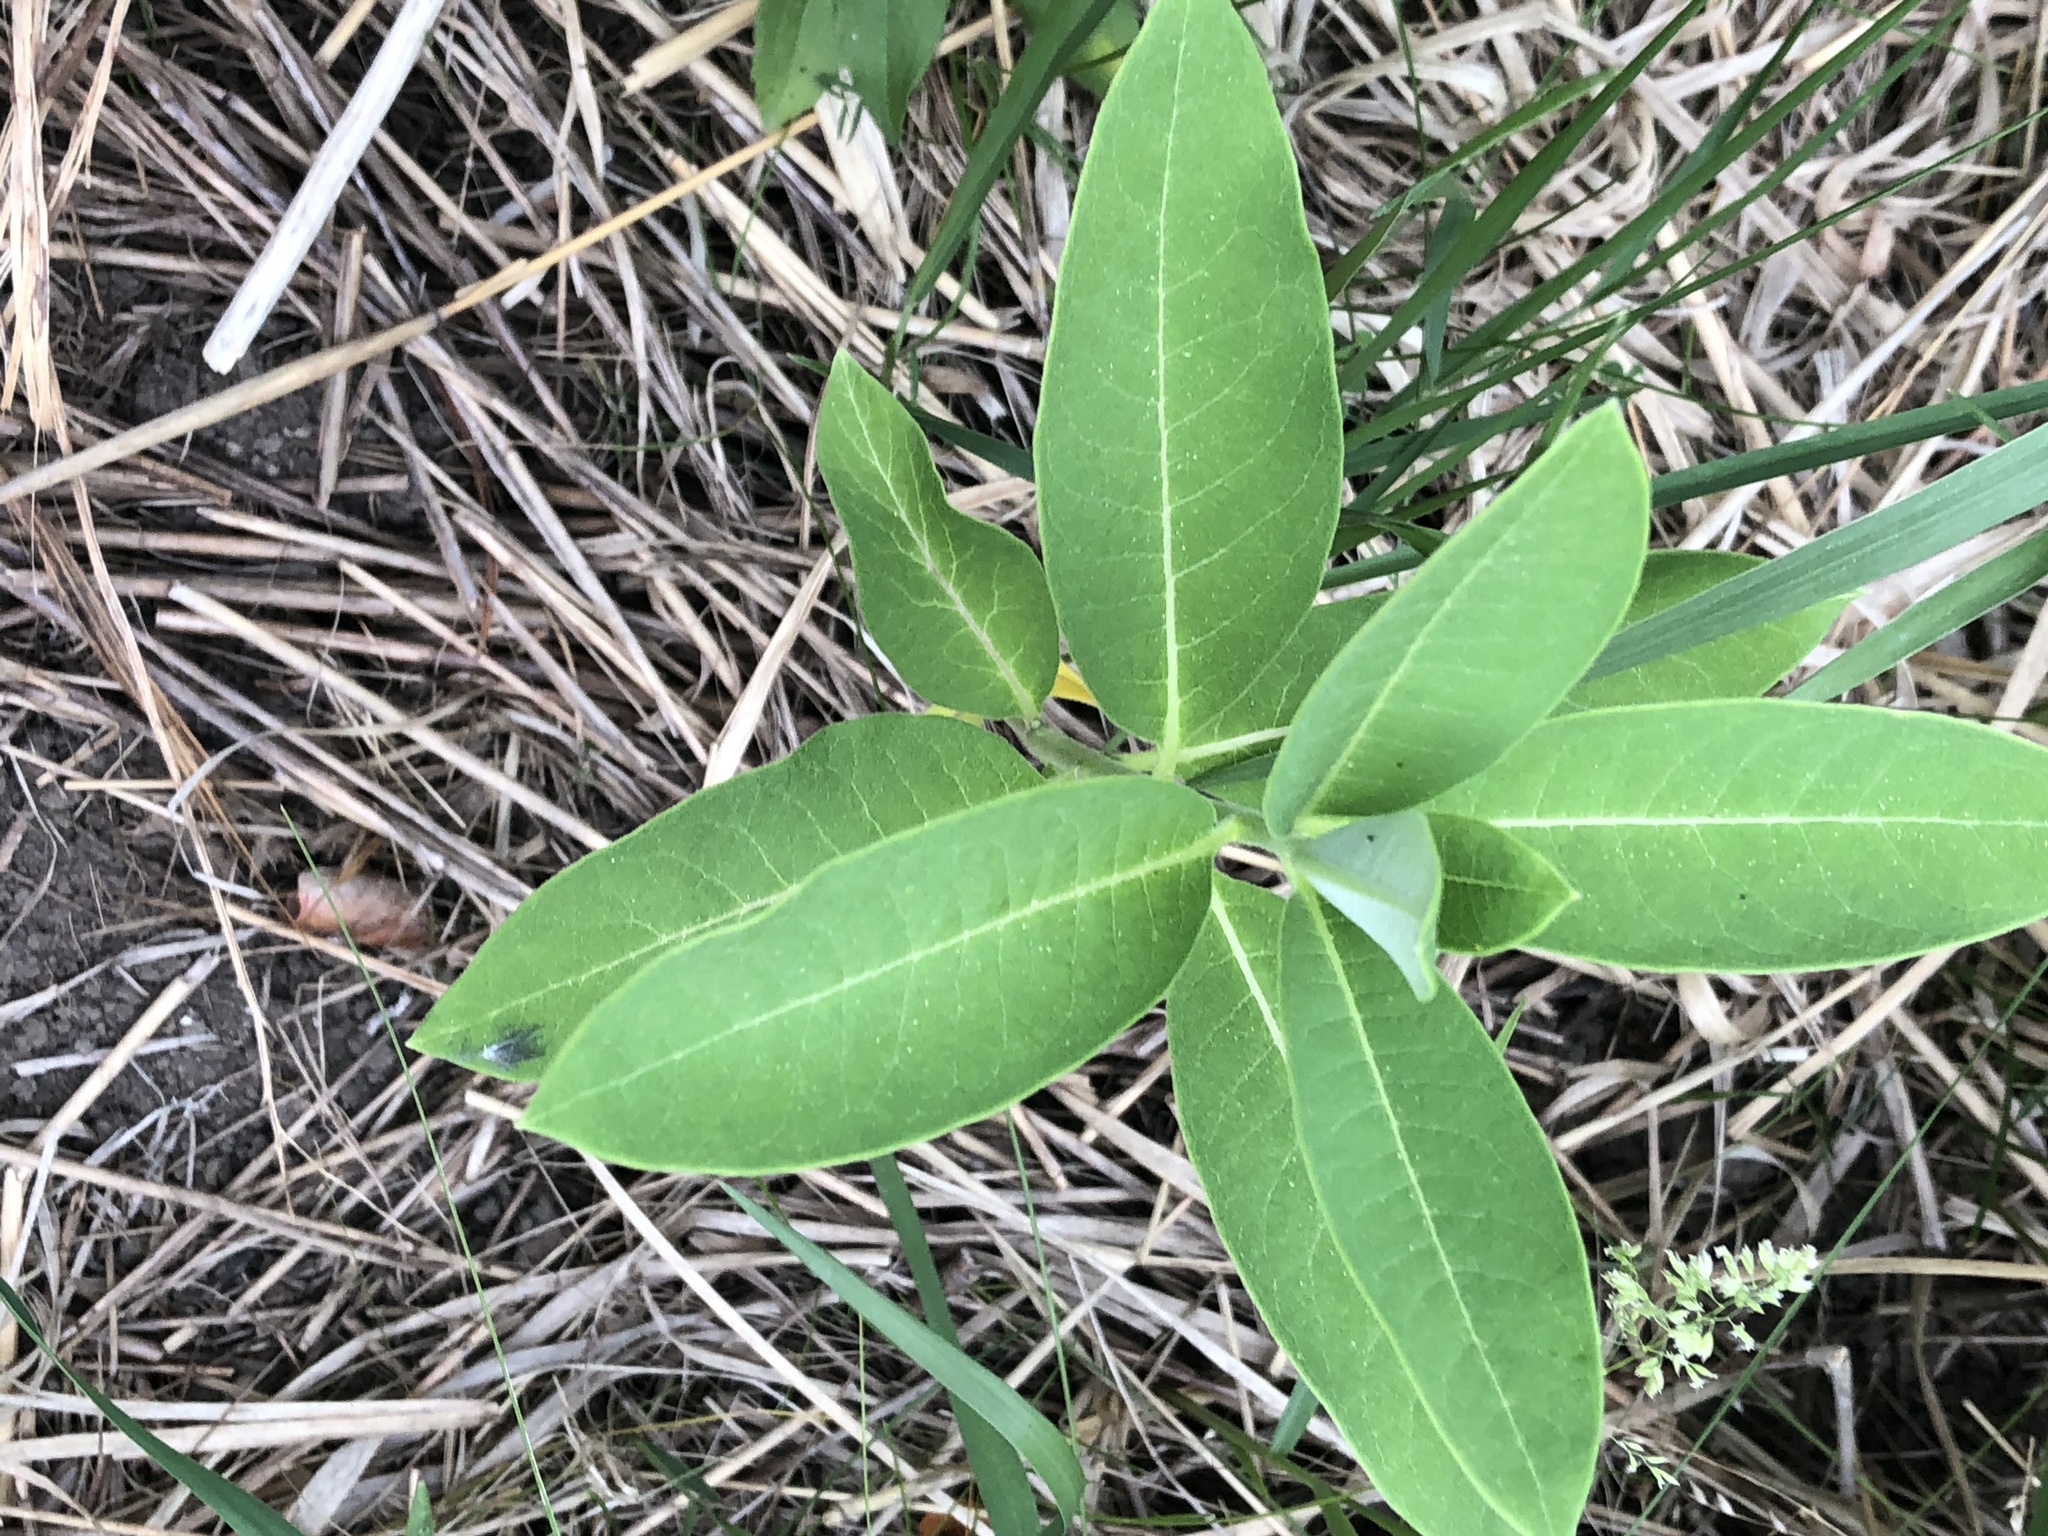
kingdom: Plantae
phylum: Tracheophyta
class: Magnoliopsida
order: Gentianales
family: Apocynaceae
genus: Asclepias
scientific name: Asclepias syriaca
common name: Common milkweed
